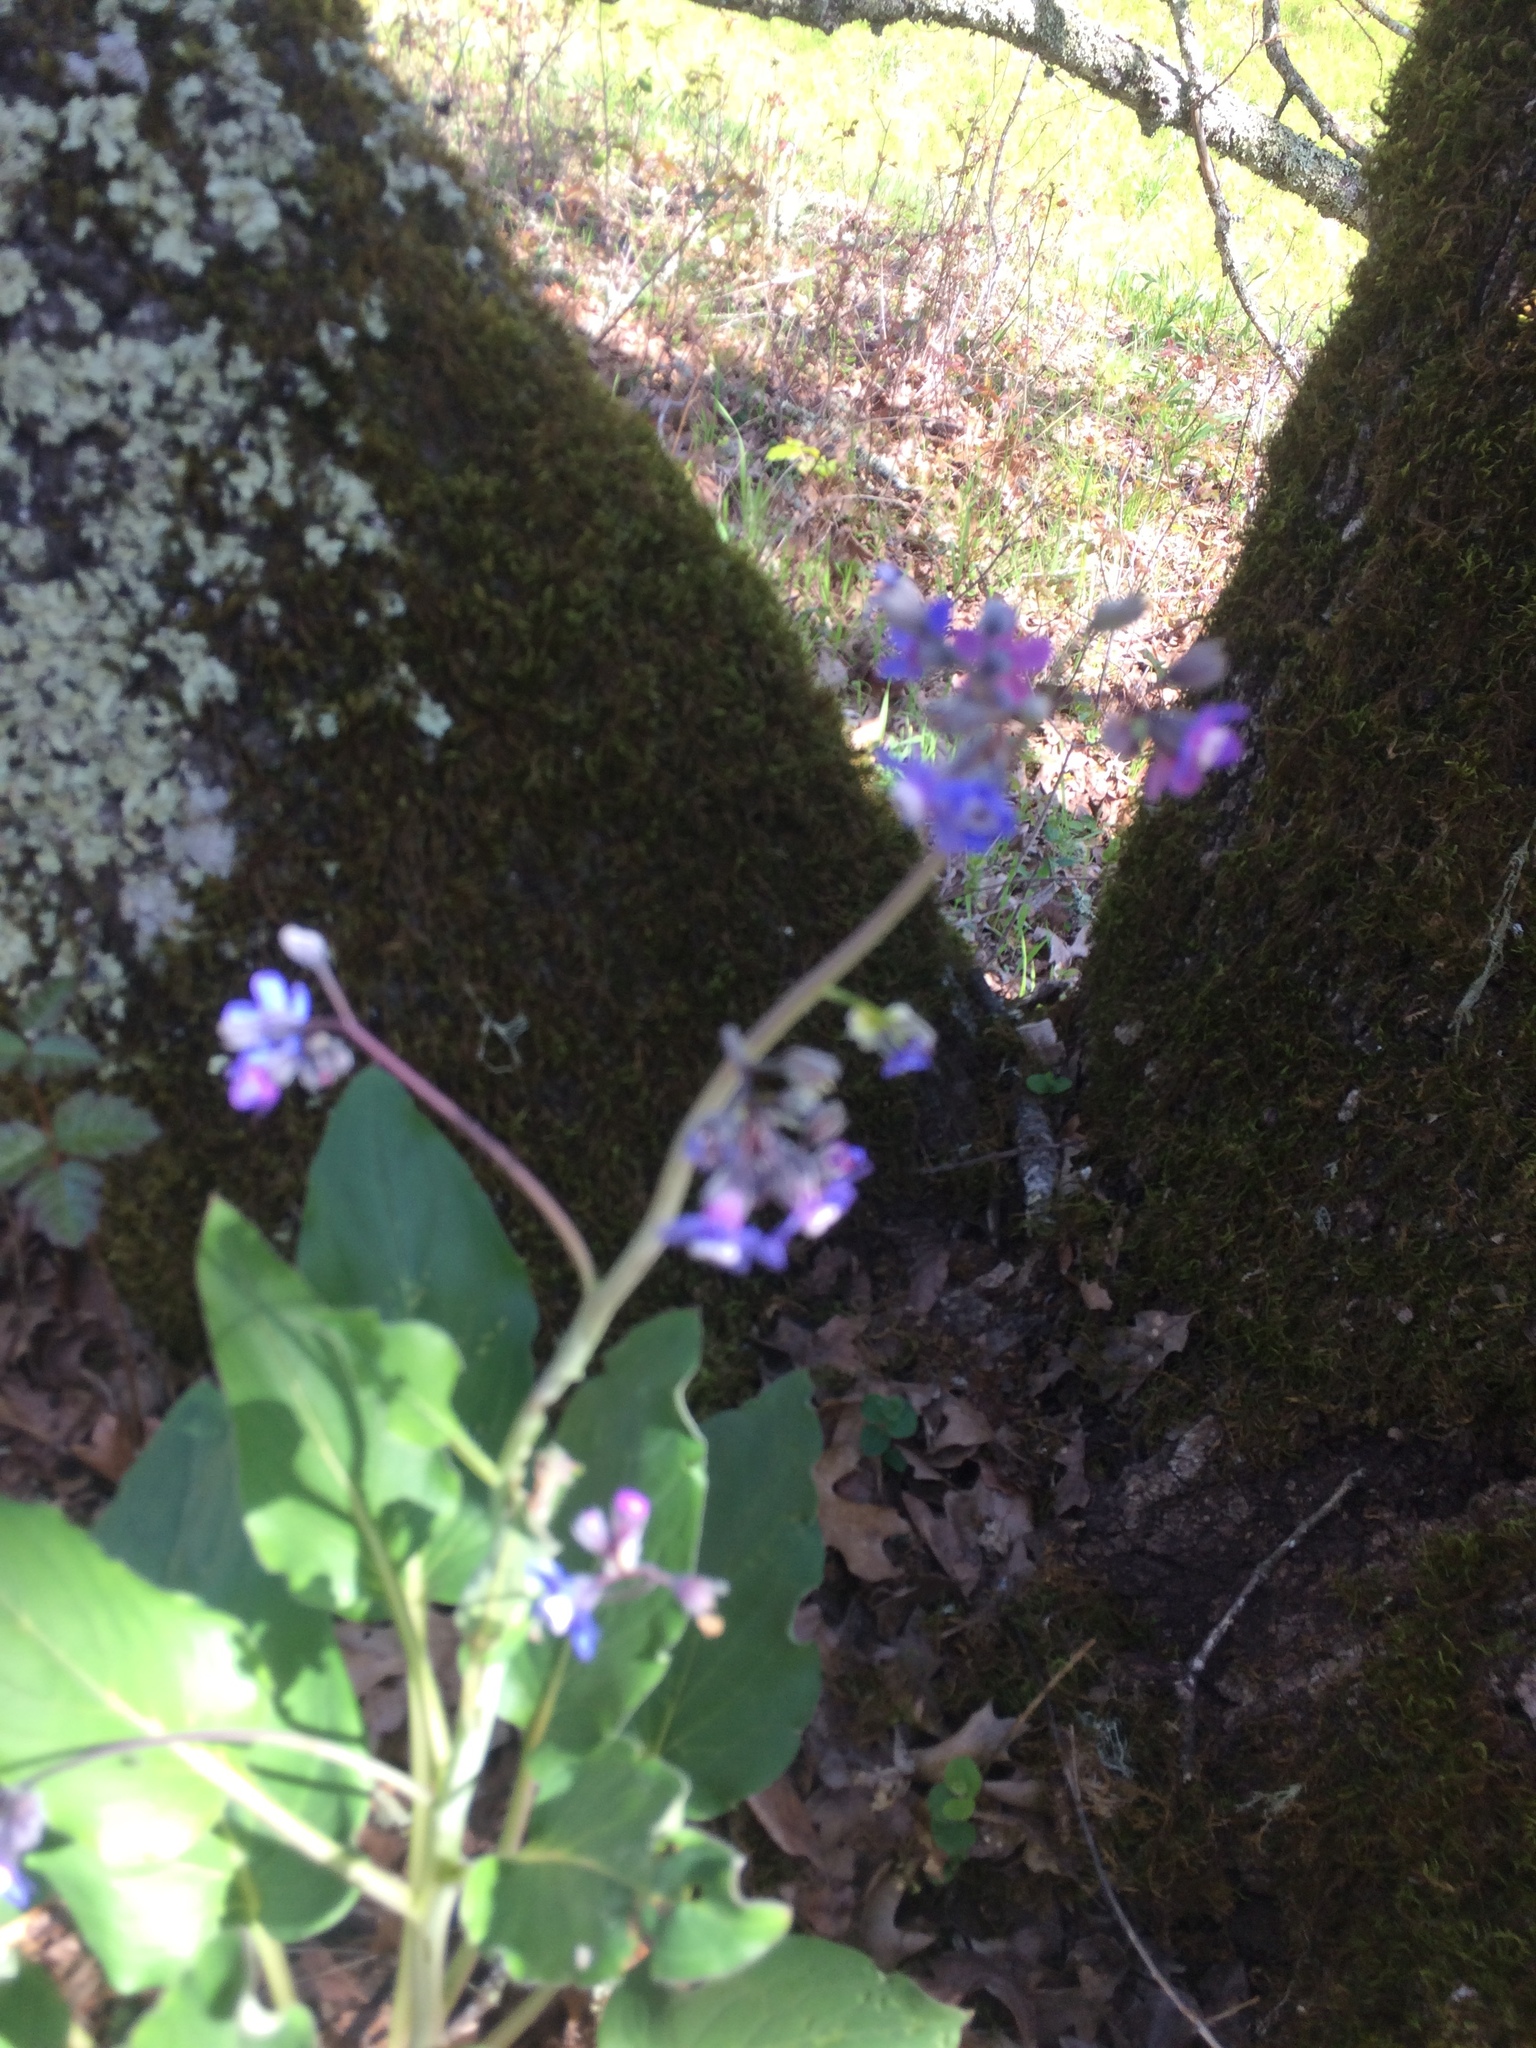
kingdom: Plantae
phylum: Tracheophyta
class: Magnoliopsida
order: Boraginales
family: Boraginaceae
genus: Adelinia
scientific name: Adelinia grande
